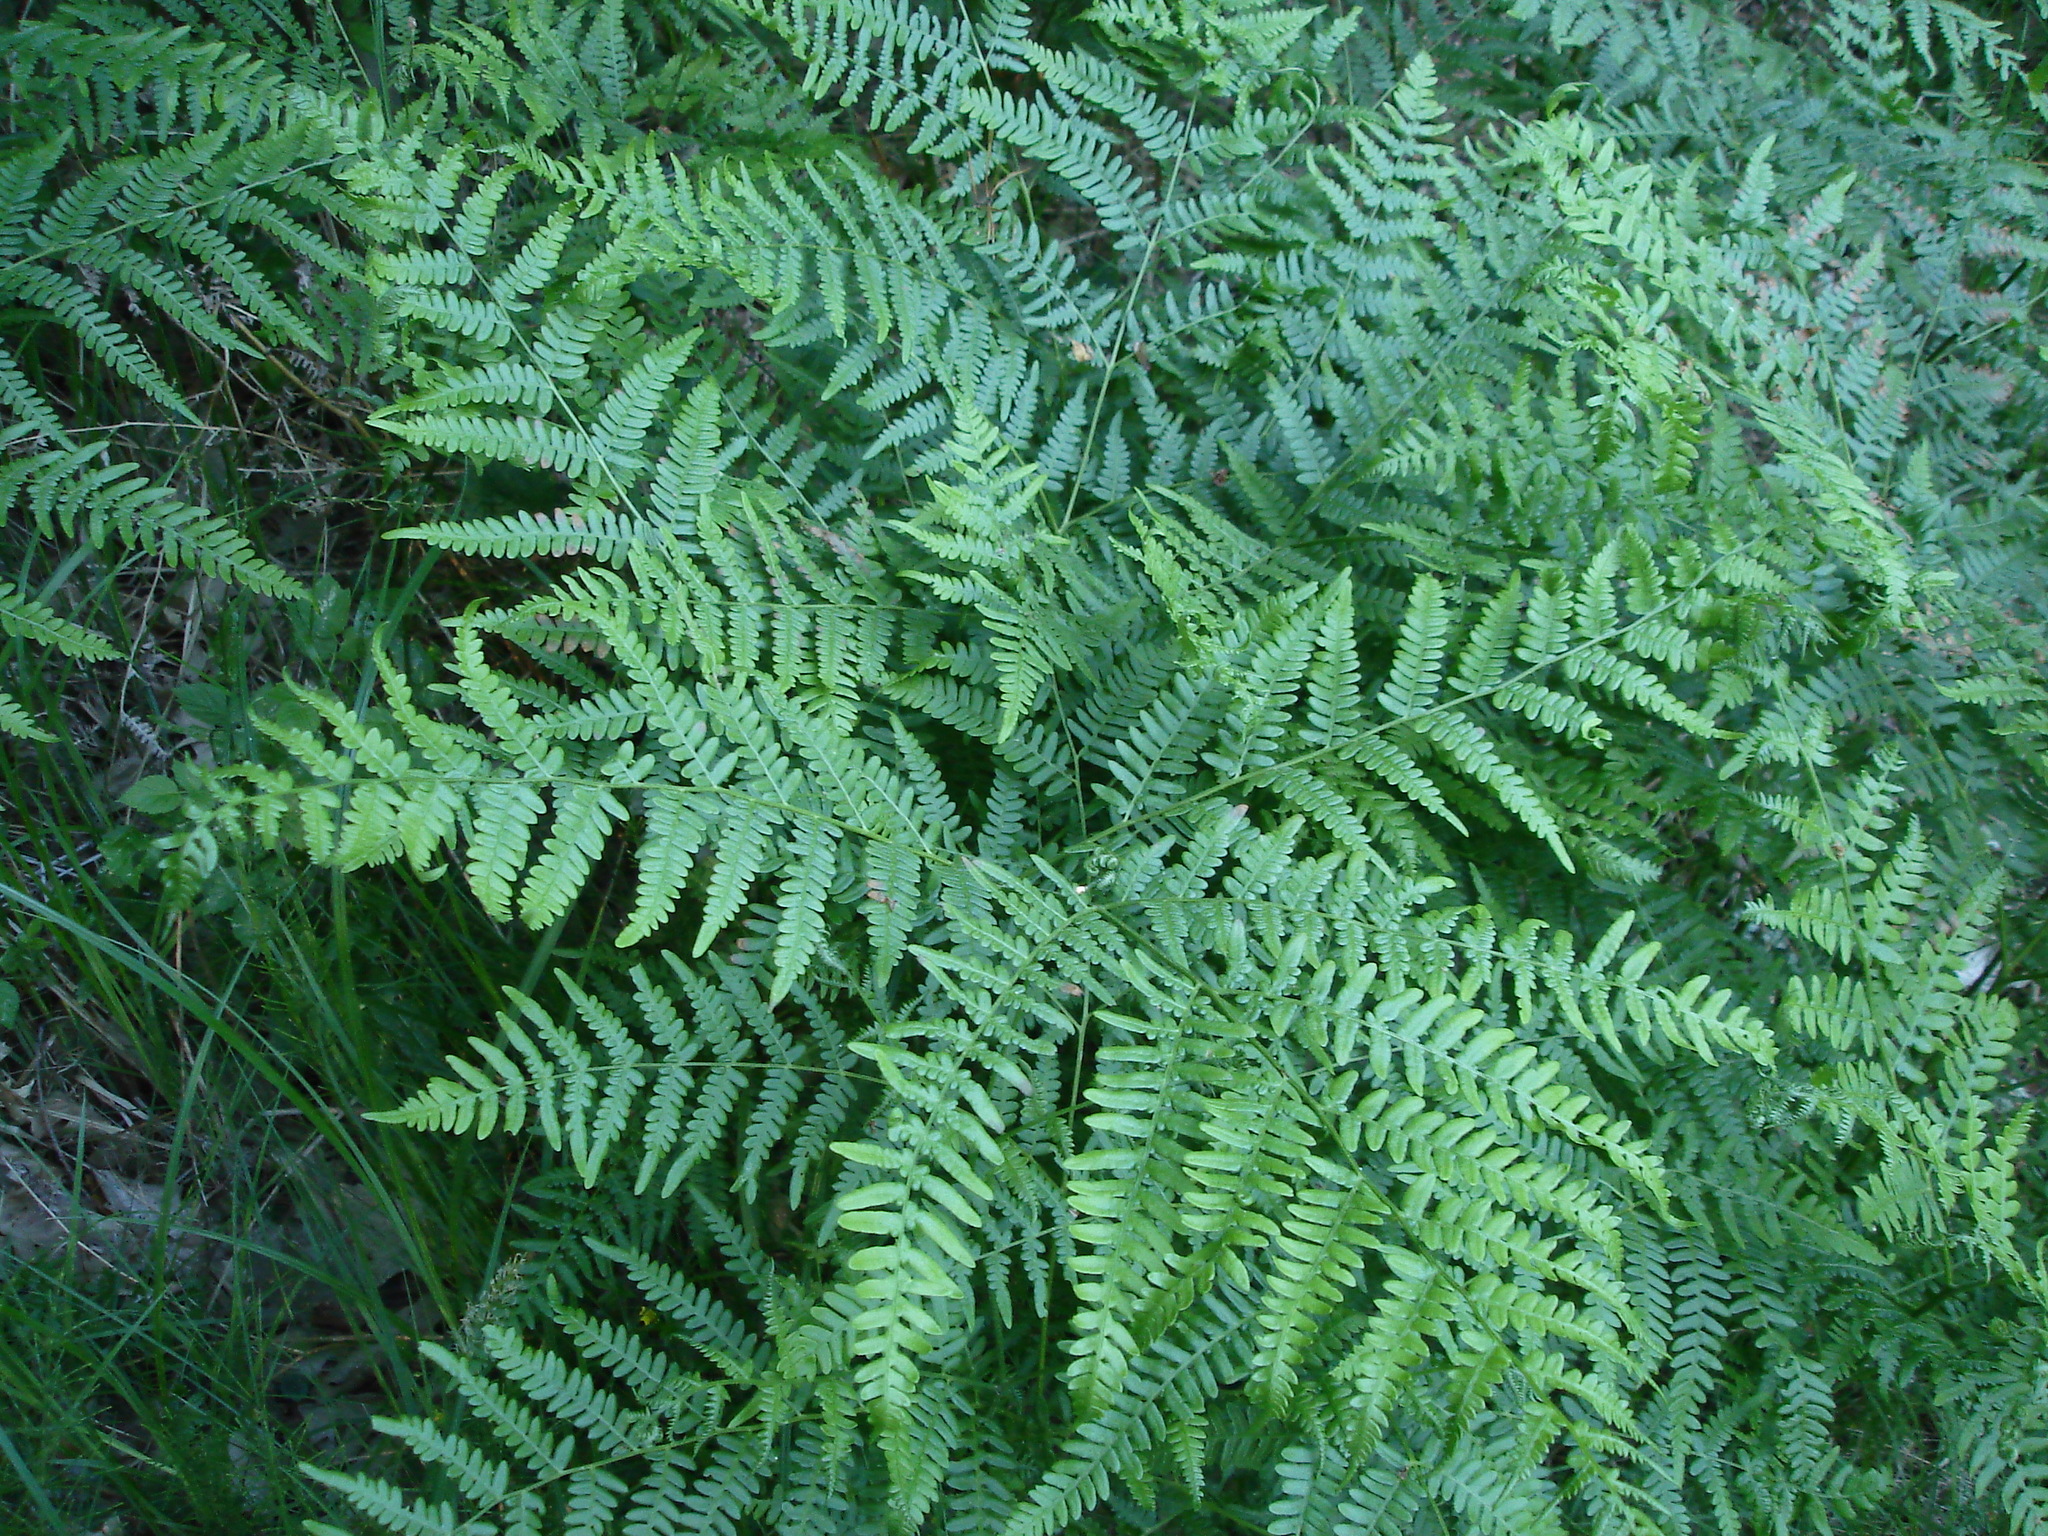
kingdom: Plantae
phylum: Tracheophyta
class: Polypodiopsida
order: Polypodiales
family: Dennstaedtiaceae
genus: Pteridium
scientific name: Pteridium aquilinum
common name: Bracken
